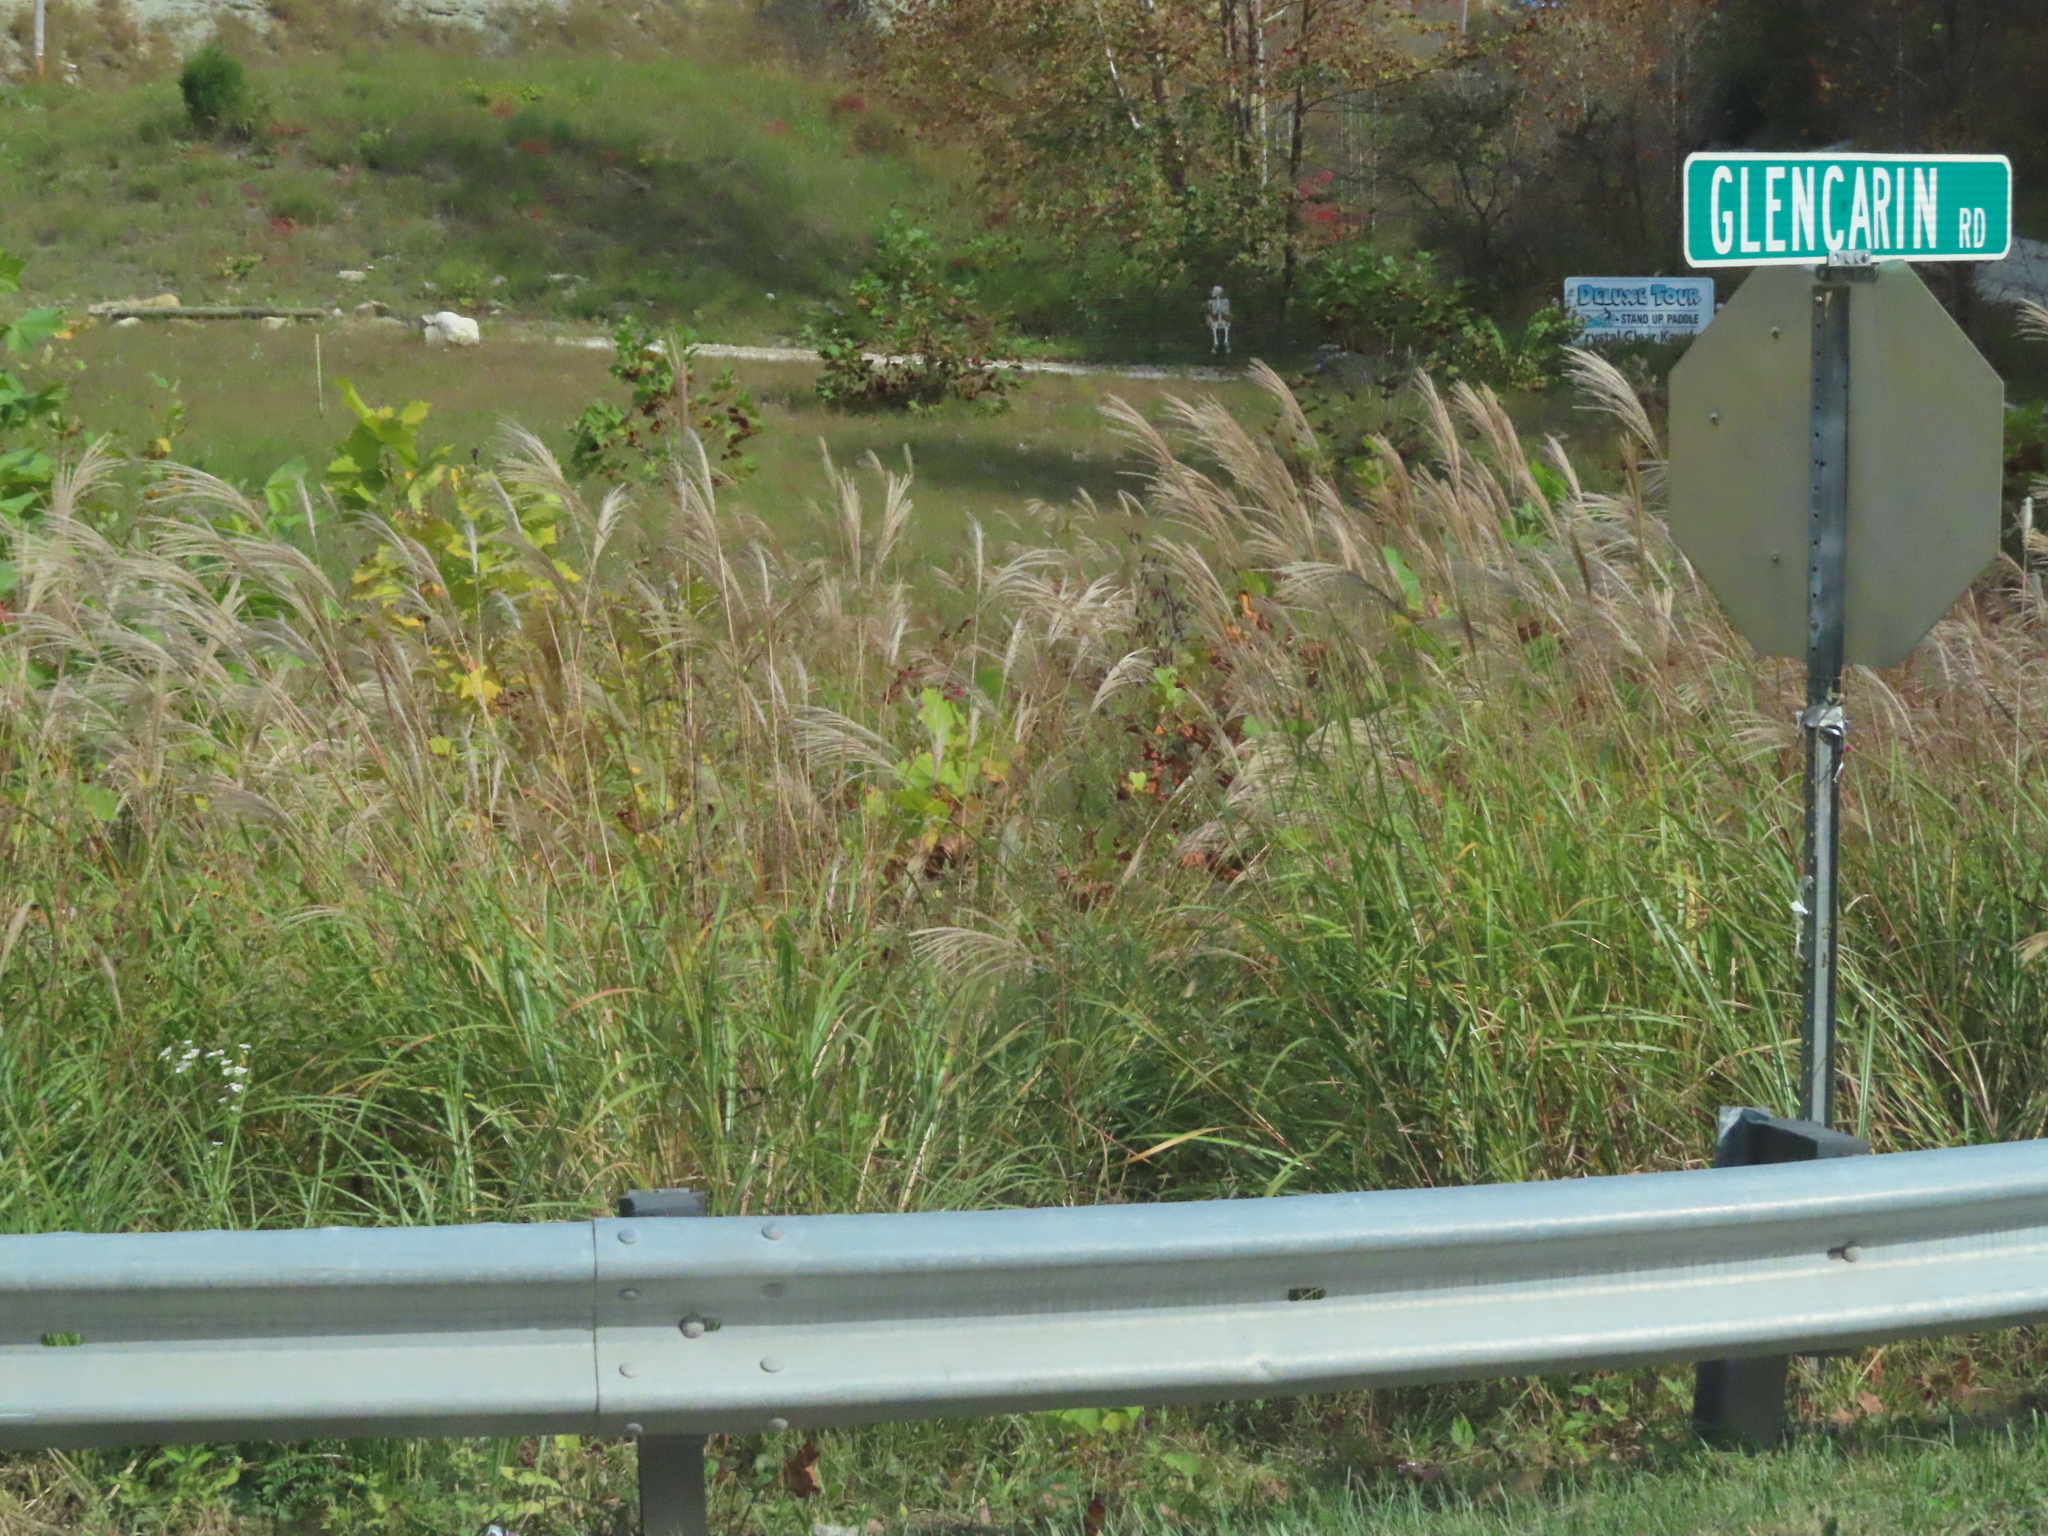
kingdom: Plantae
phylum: Tracheophyta
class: Liliopsida
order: Poales
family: Poaceae
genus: Miscanthus
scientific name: Miscanthus sinensis
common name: Chinese silvergrass
